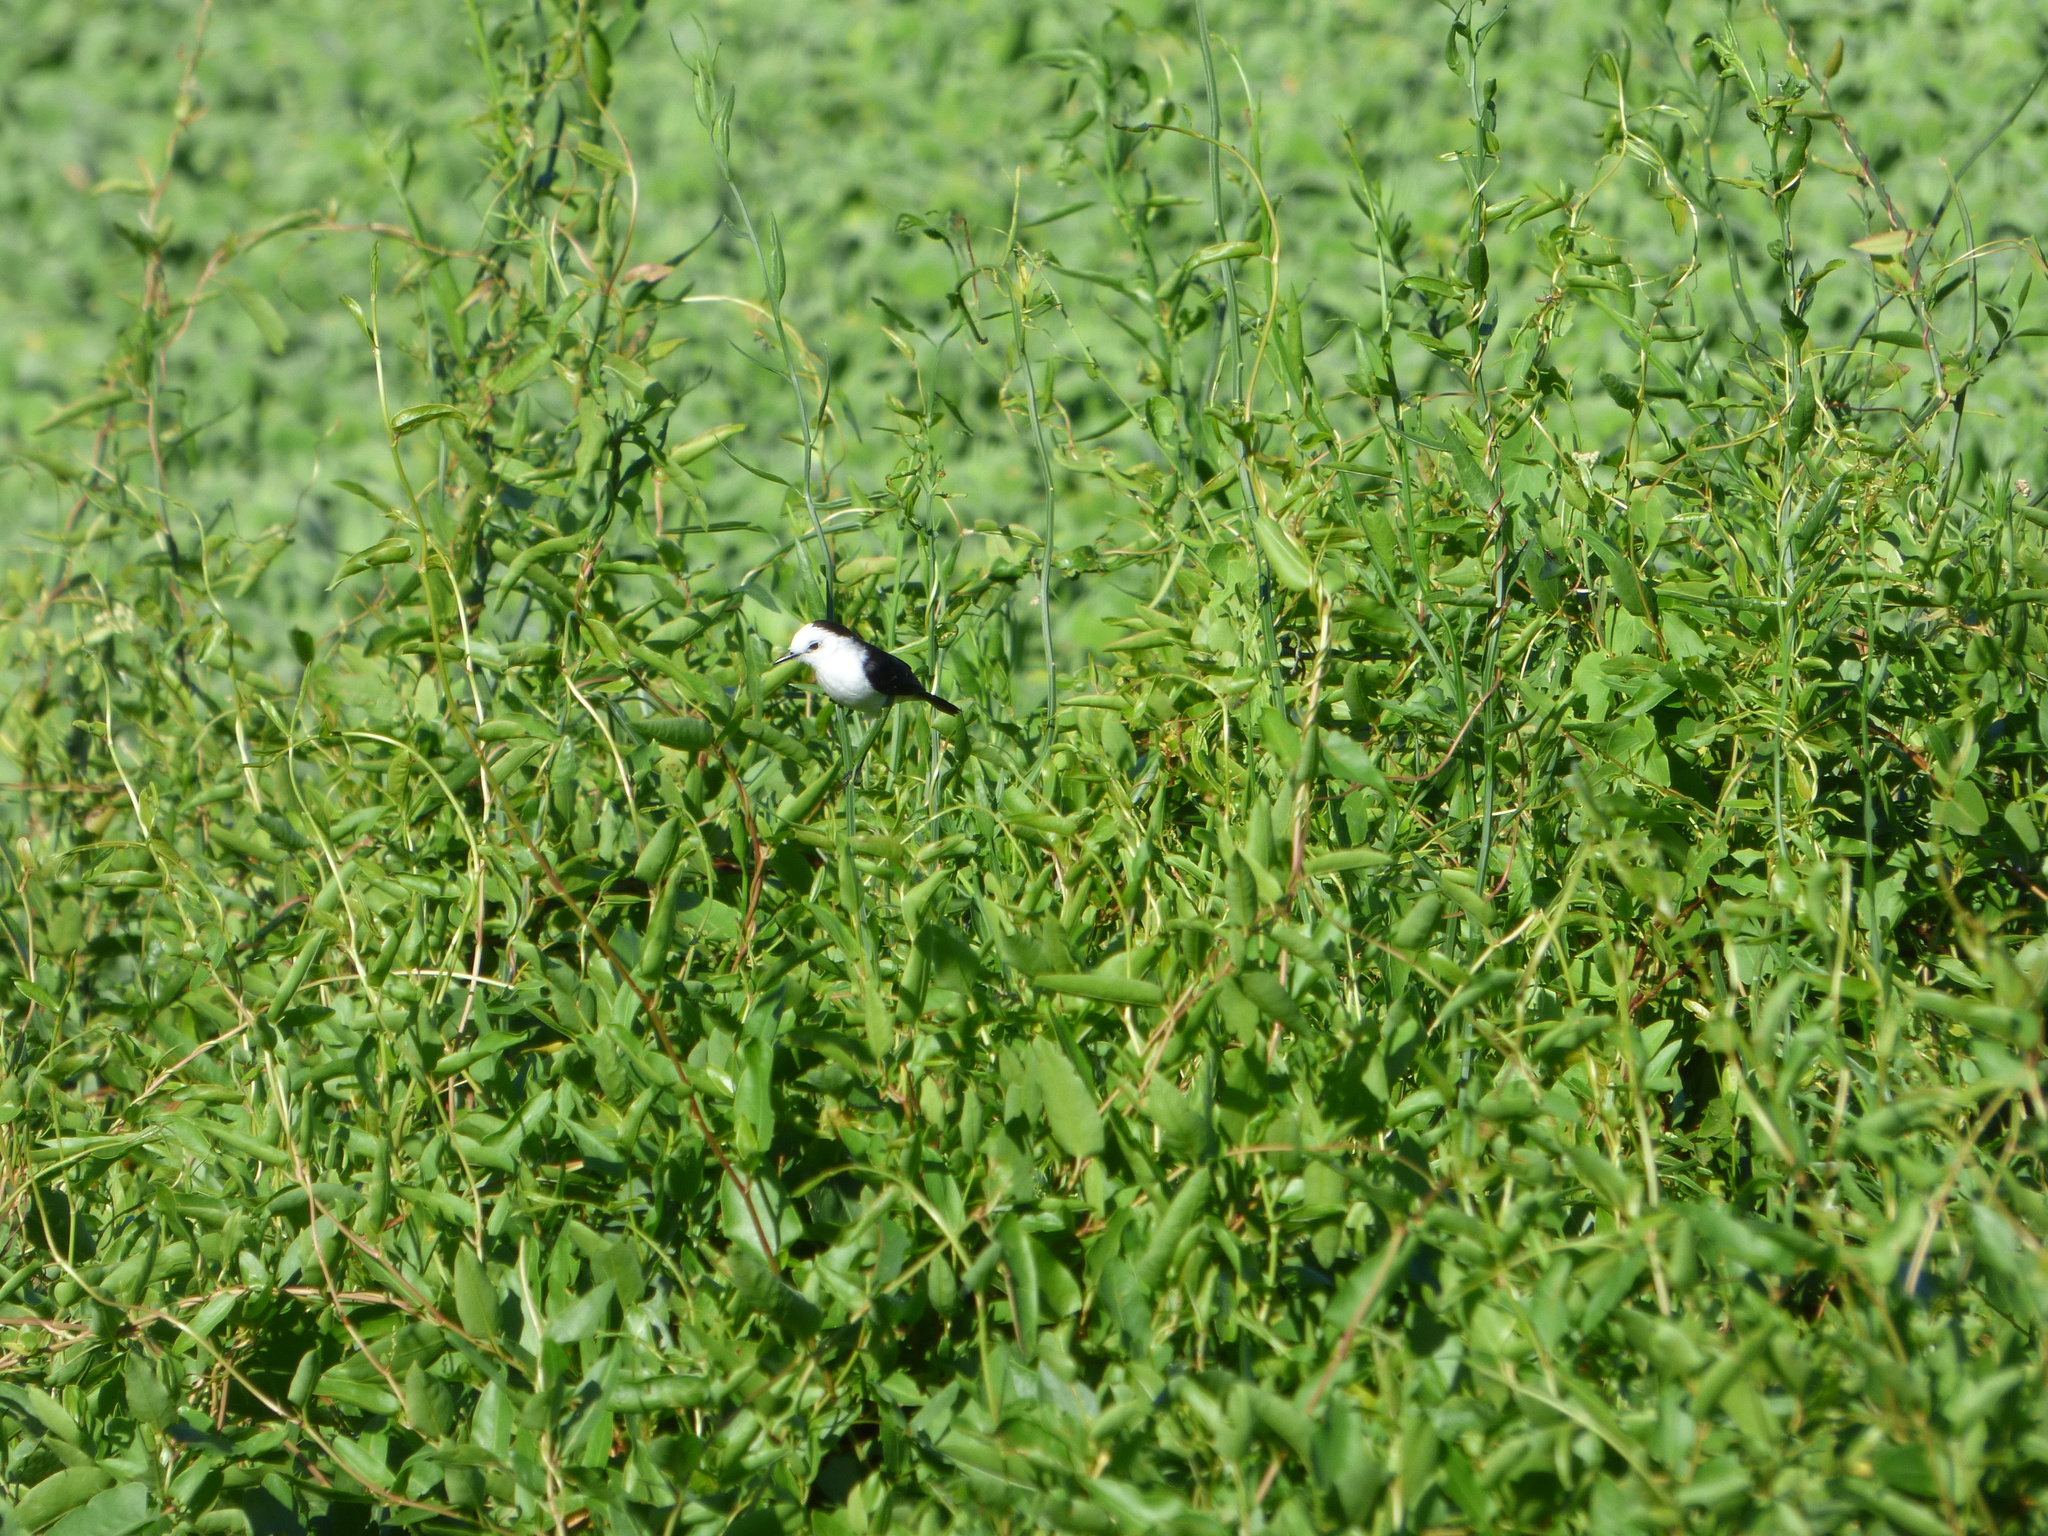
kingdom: Animalia
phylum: Chordata
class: Aves
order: Passeriformes
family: Tyrannidae
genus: Fluvicola
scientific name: Fluvicola pica
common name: Pied water-tyrant
